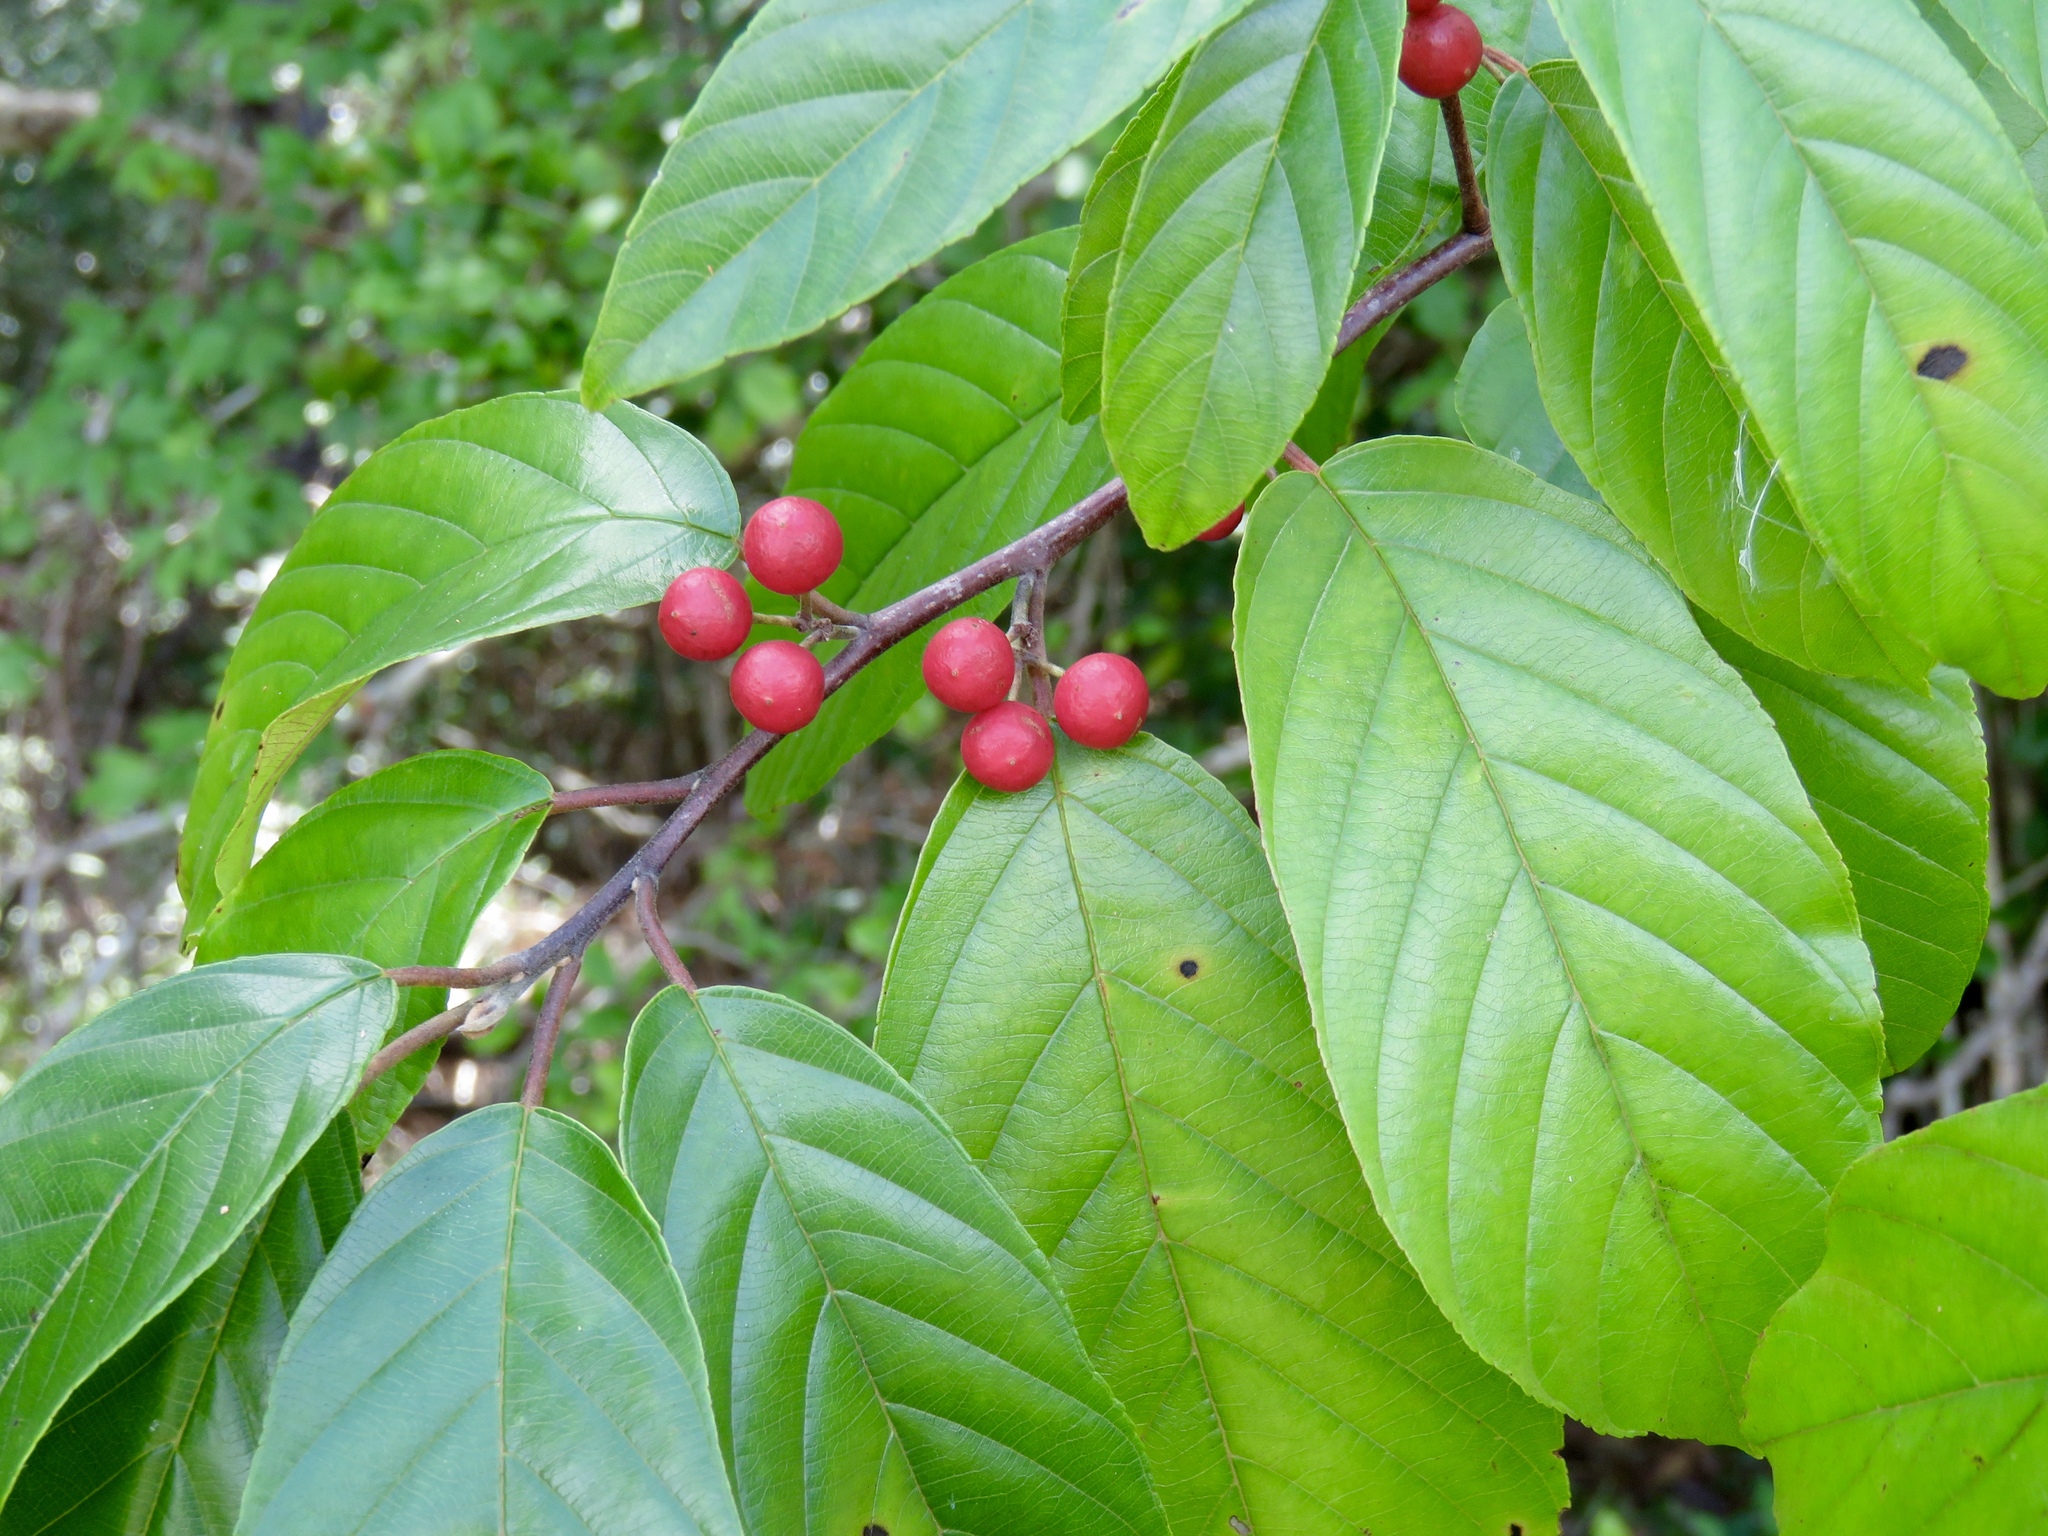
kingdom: Plantae
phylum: Tracheophyta
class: Magnoliopsida
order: Rosales
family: Rhamnaceae
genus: Frangula
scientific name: Frangula caroliniana
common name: Carolina buckthorn
